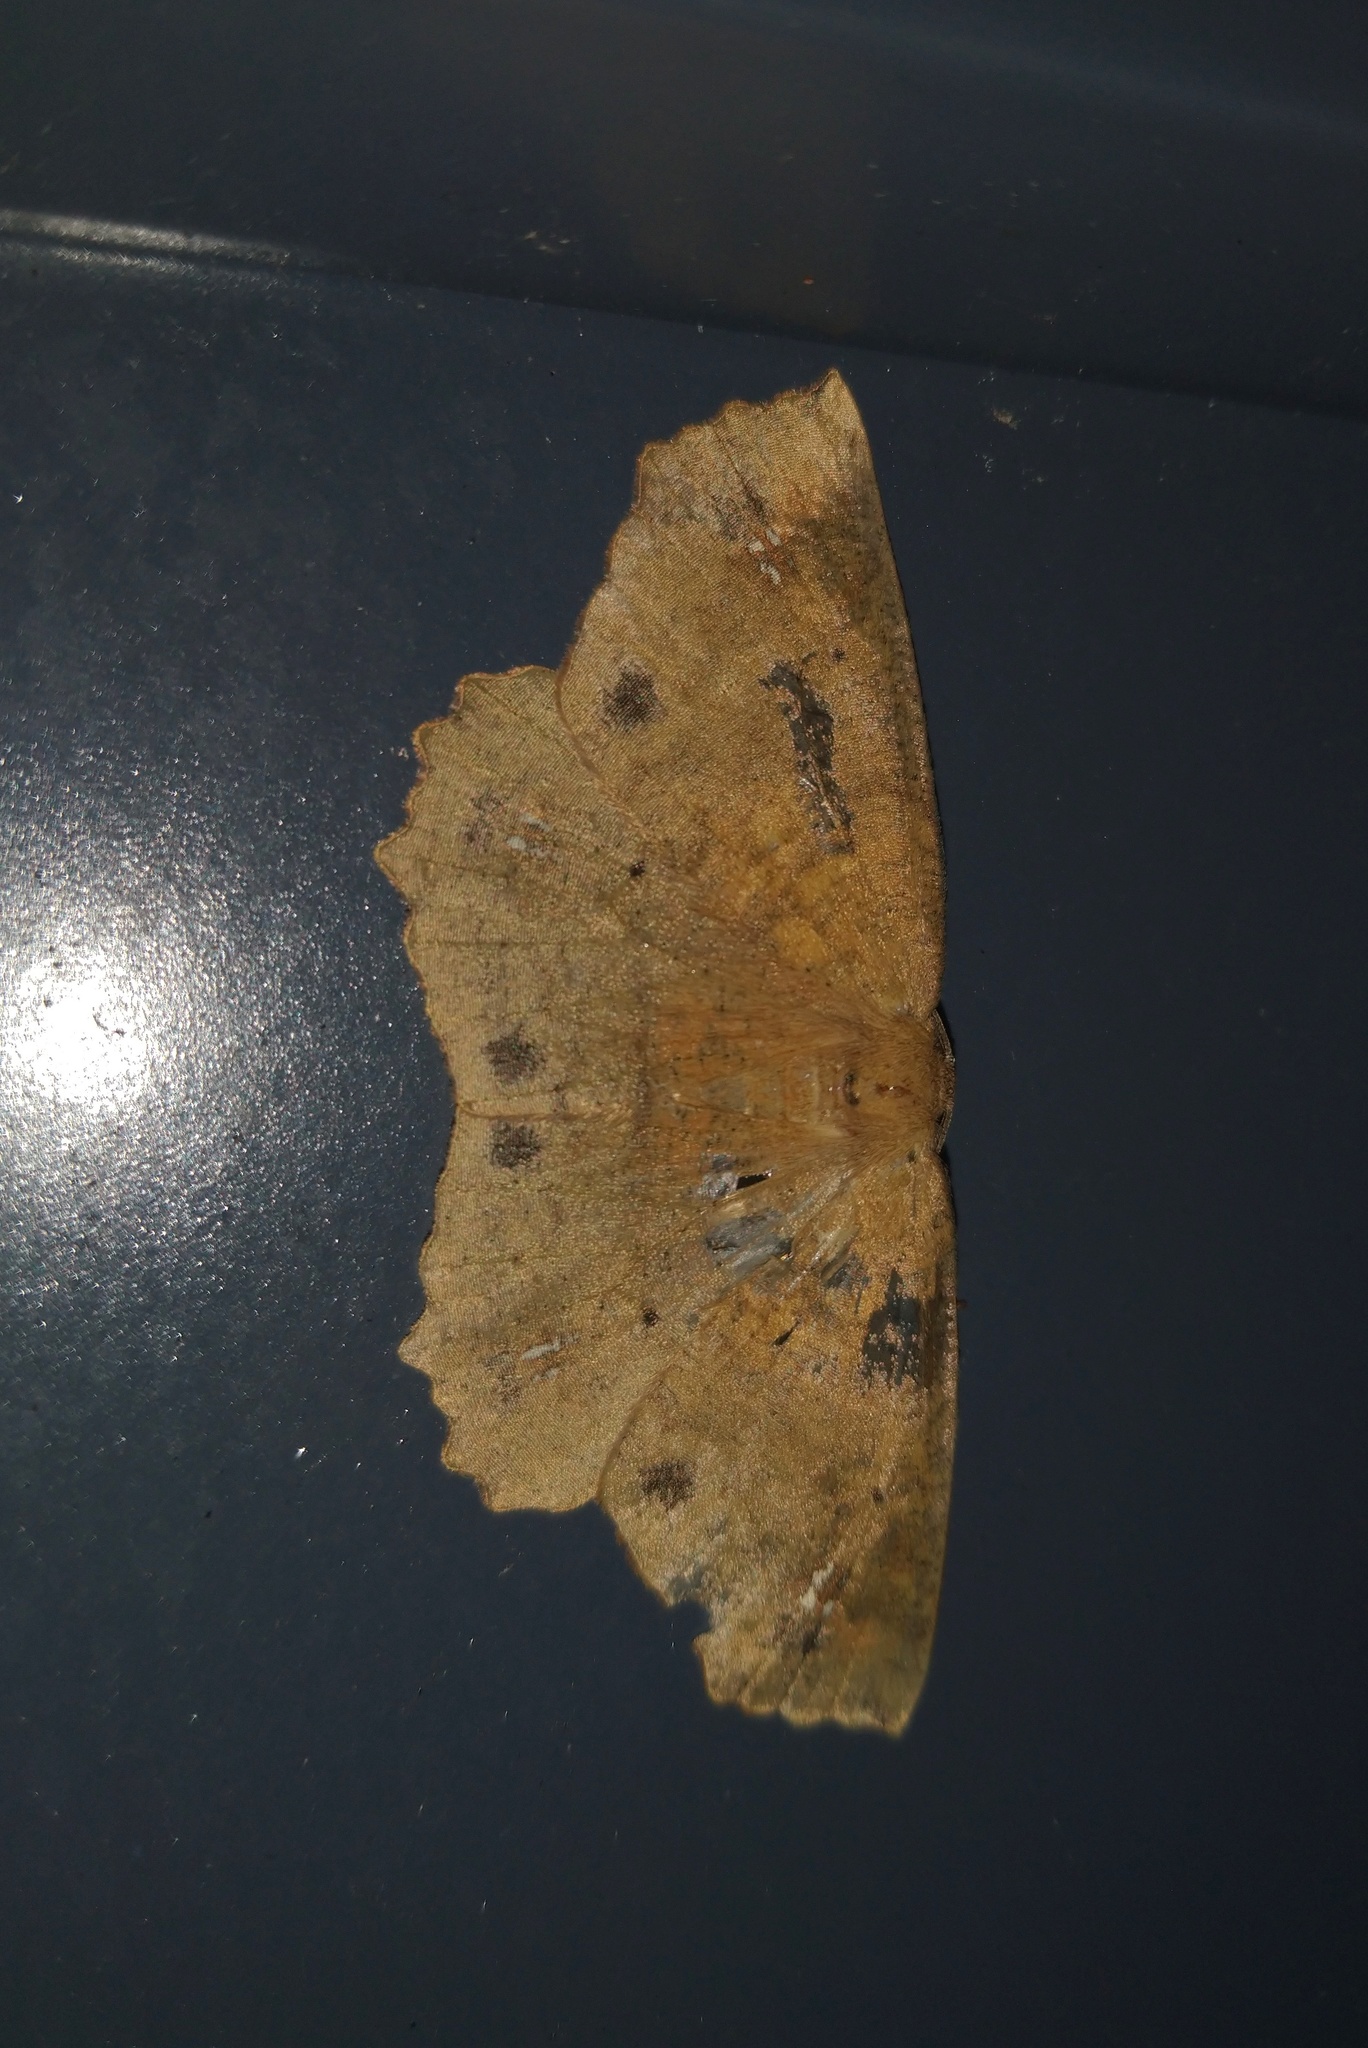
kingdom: Animalia
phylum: Arthropoda
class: Insecta
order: Lepidoptera
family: Geometridae
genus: Xyridacma
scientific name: Xyridacma ustaria
